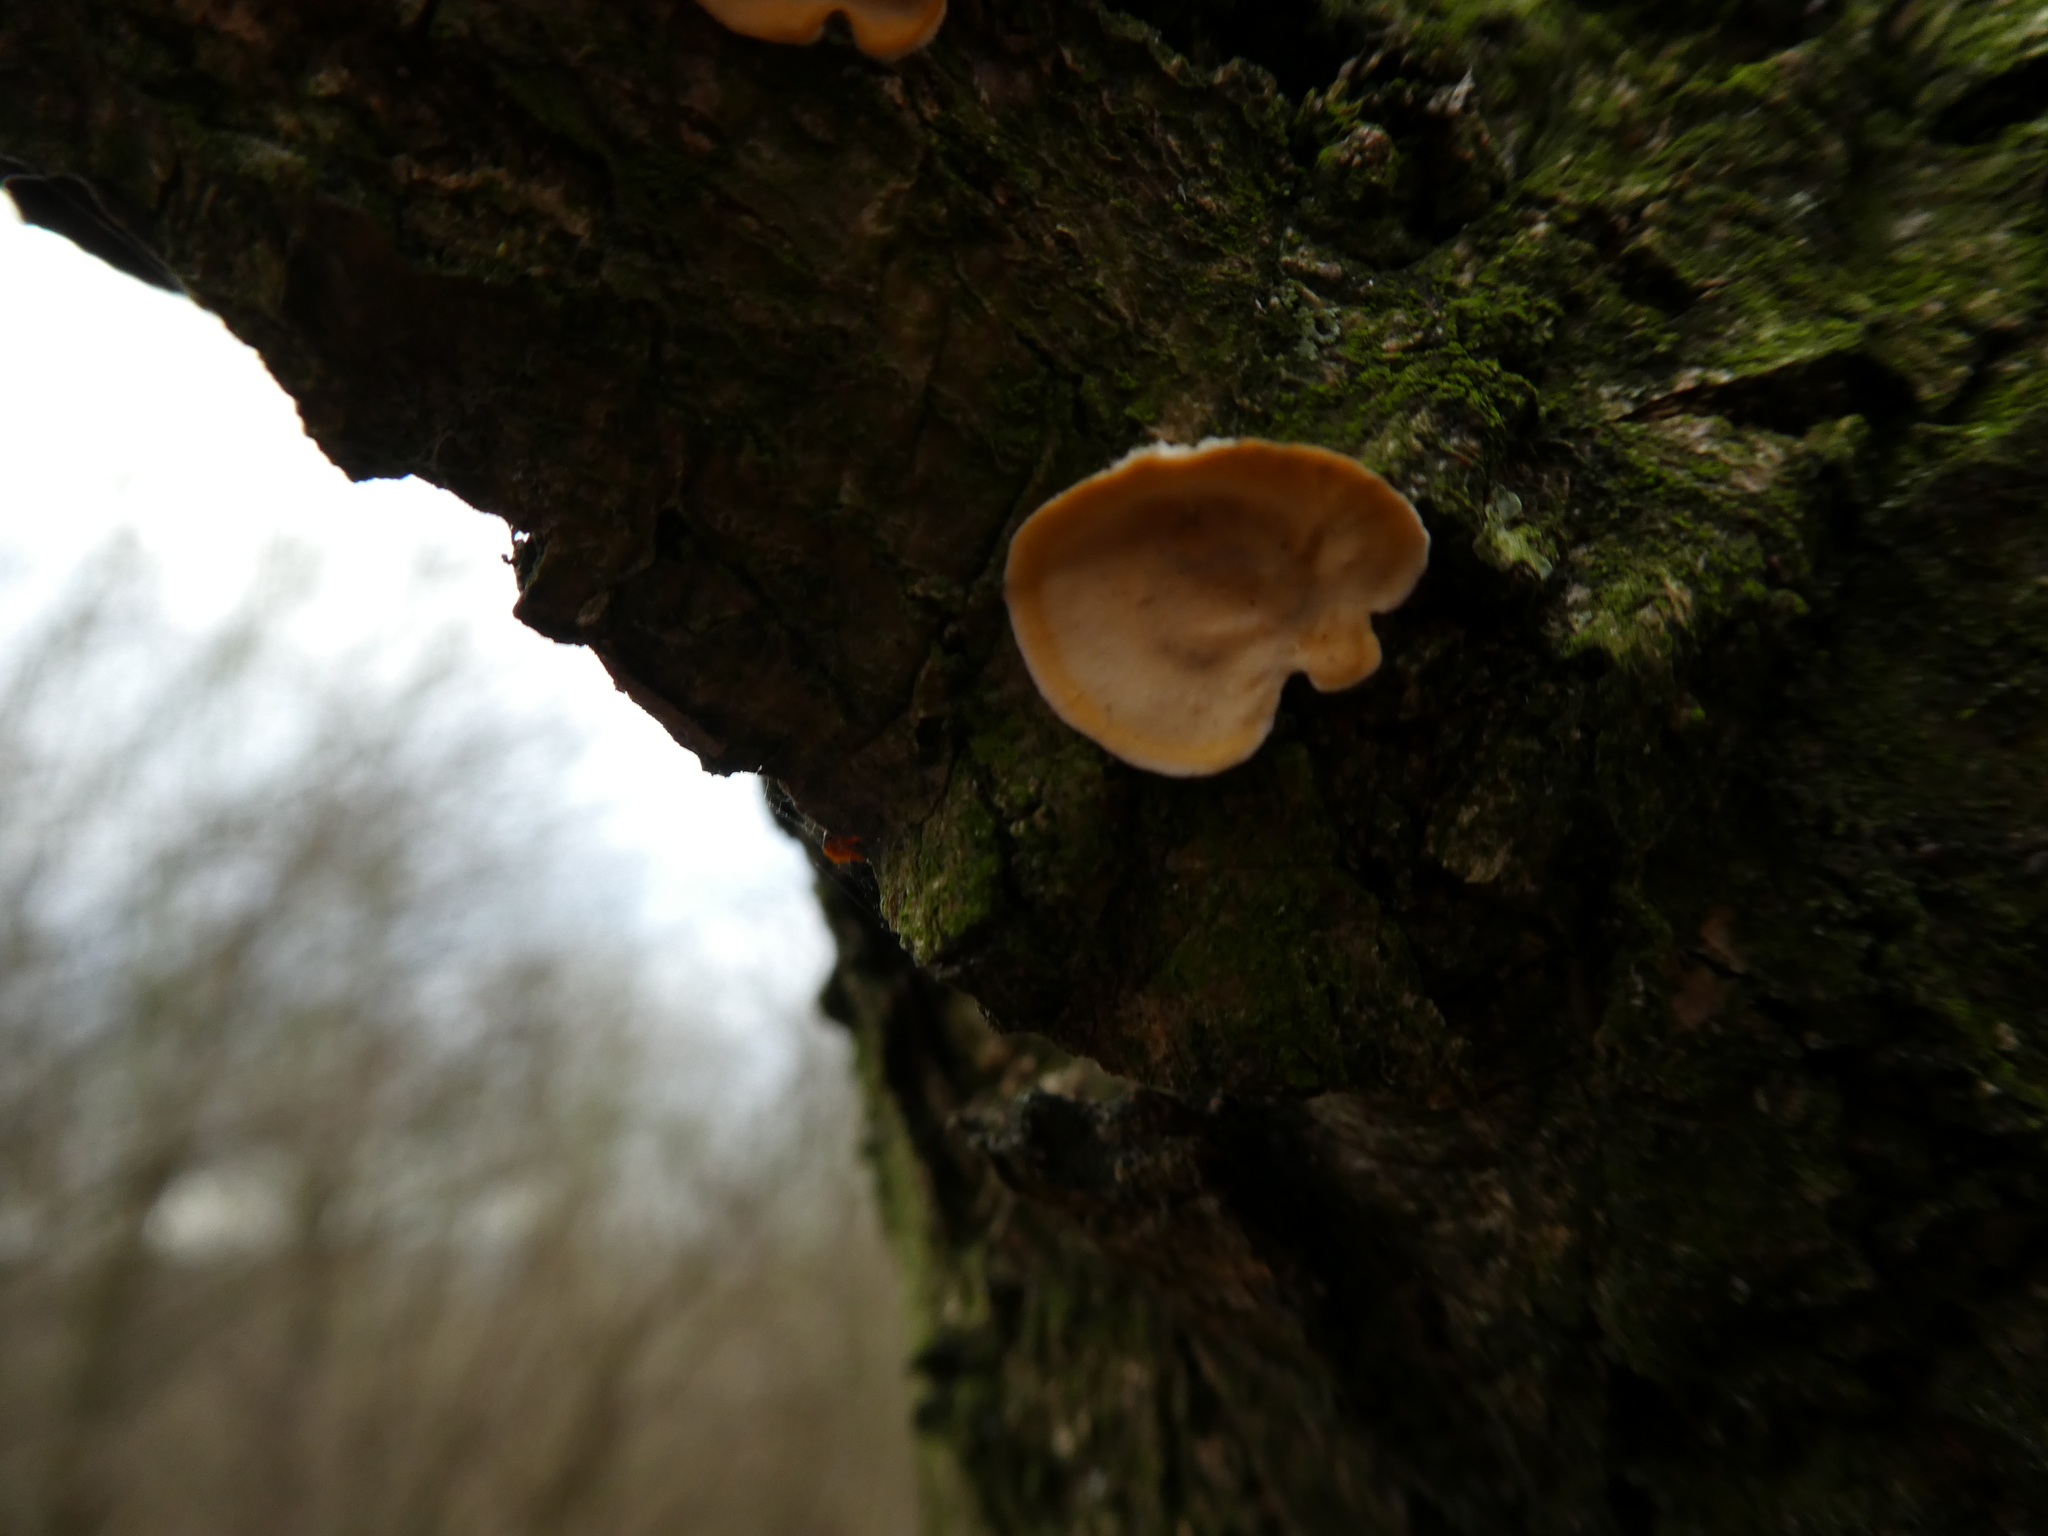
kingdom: Fungi
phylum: Basidiomycota
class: Agaricomycetes
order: Russulales
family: Stereaceae
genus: Stereum
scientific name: Stereum hirsutum
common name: Hairy curtain crust
